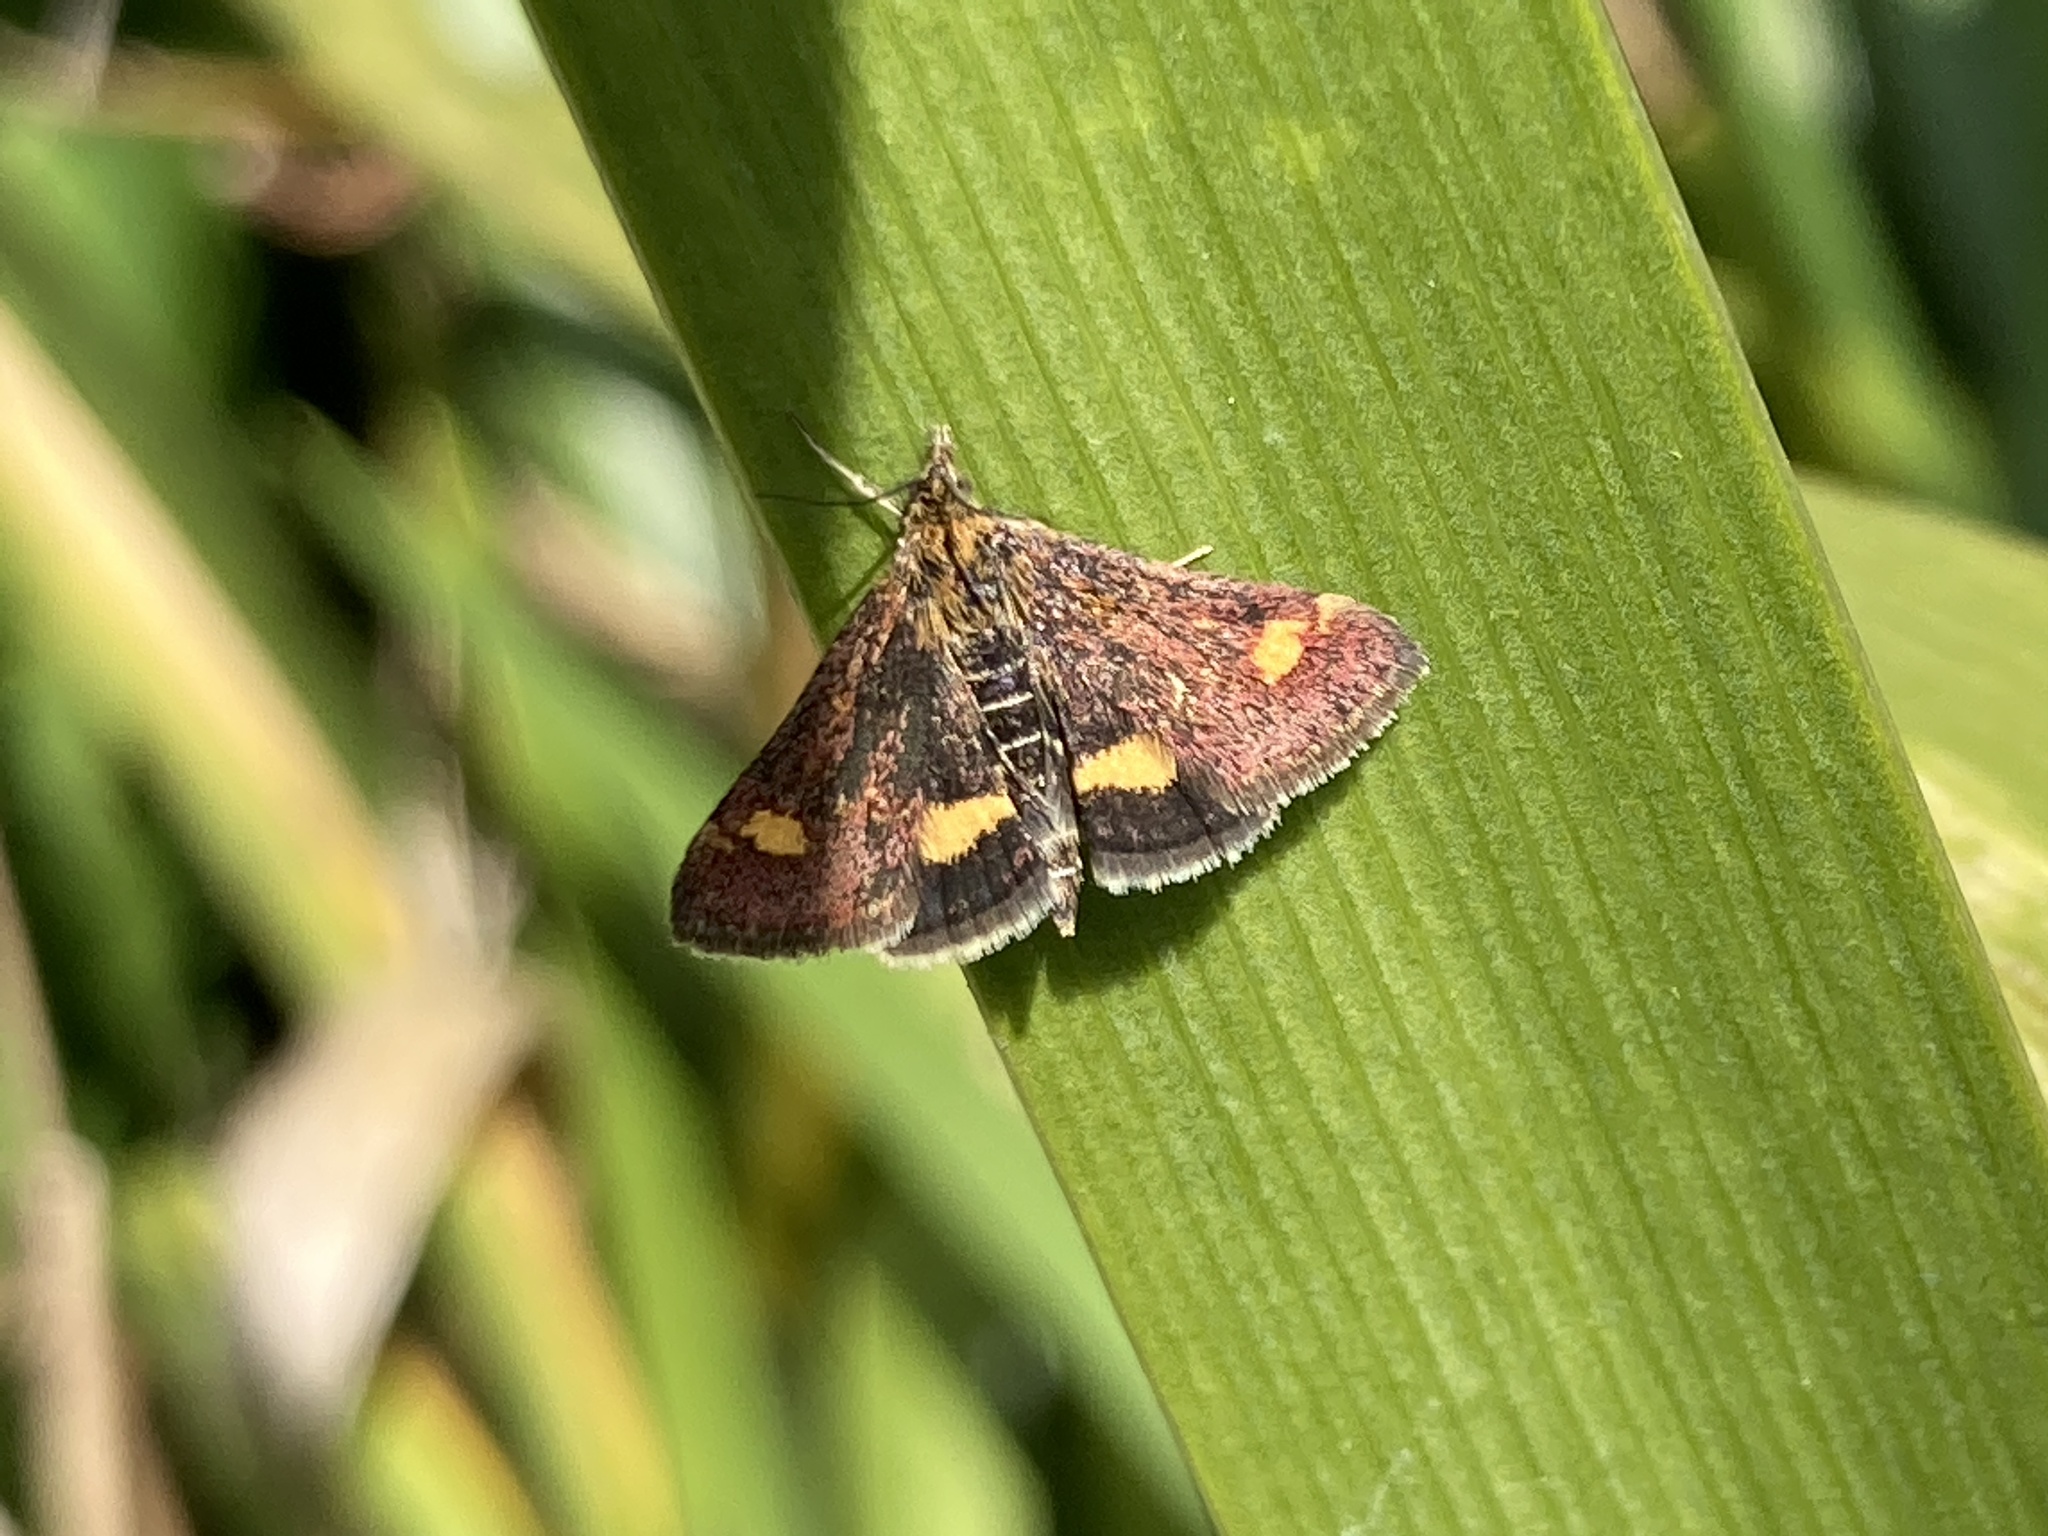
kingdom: Animalia
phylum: Arthropoda
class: Insecta
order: Lepidoptera
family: Crambidae
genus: Pyrausta
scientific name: Pyrausta aurata
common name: Small purple & gold
